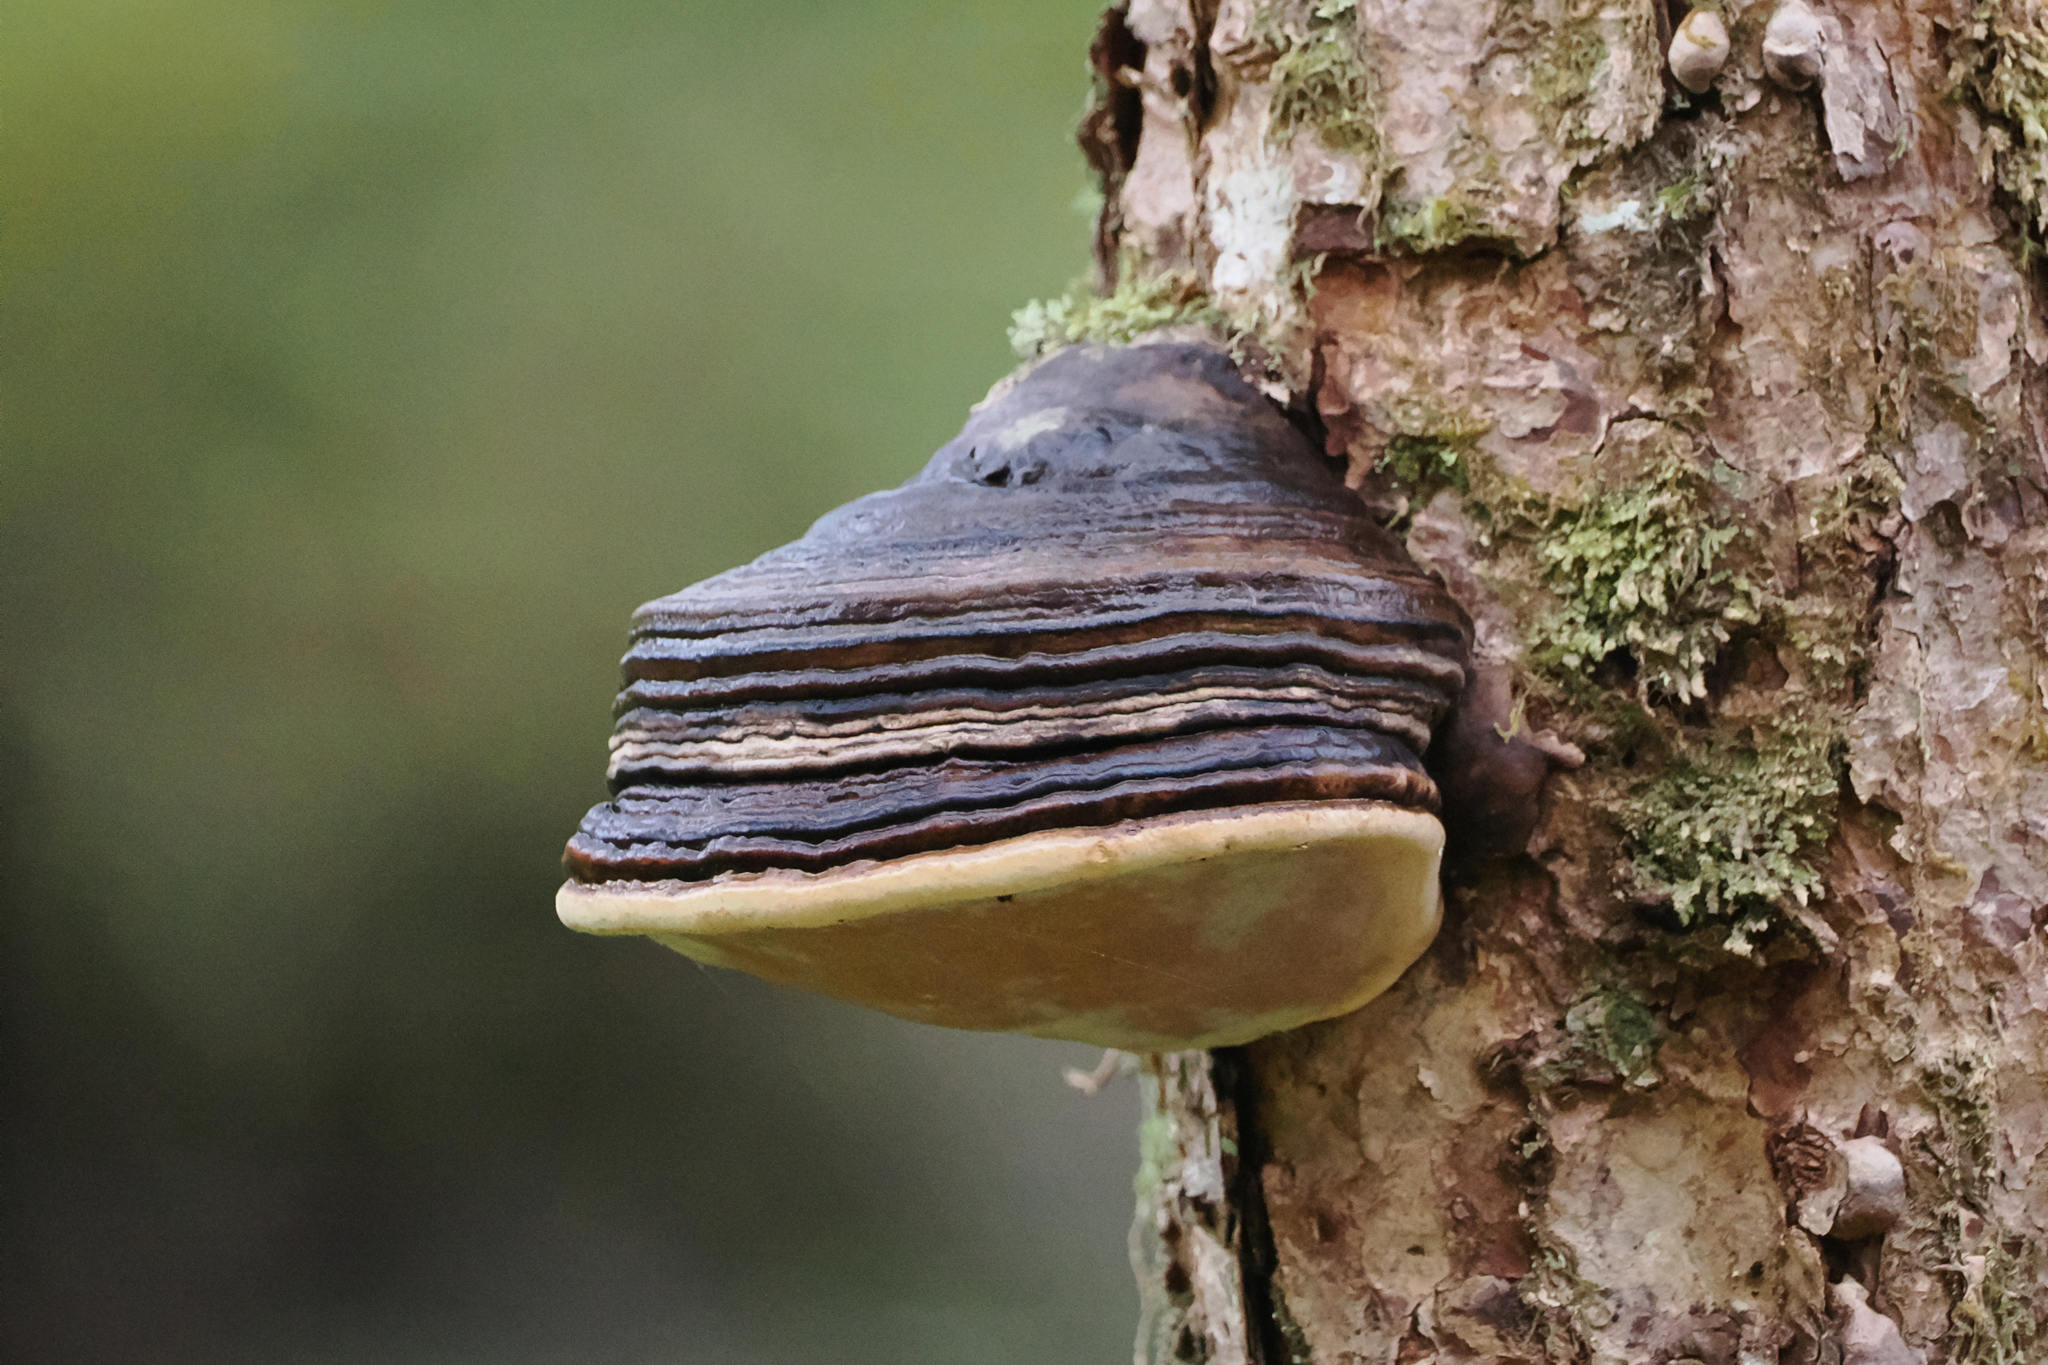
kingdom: Fungi
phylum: Basidiomycota
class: Agaricomycetes
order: Polyporales
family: Fomitopsidaceae
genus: Fomitopsis
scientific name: Fomitopsis ochracea
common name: American brown fomitopsis
